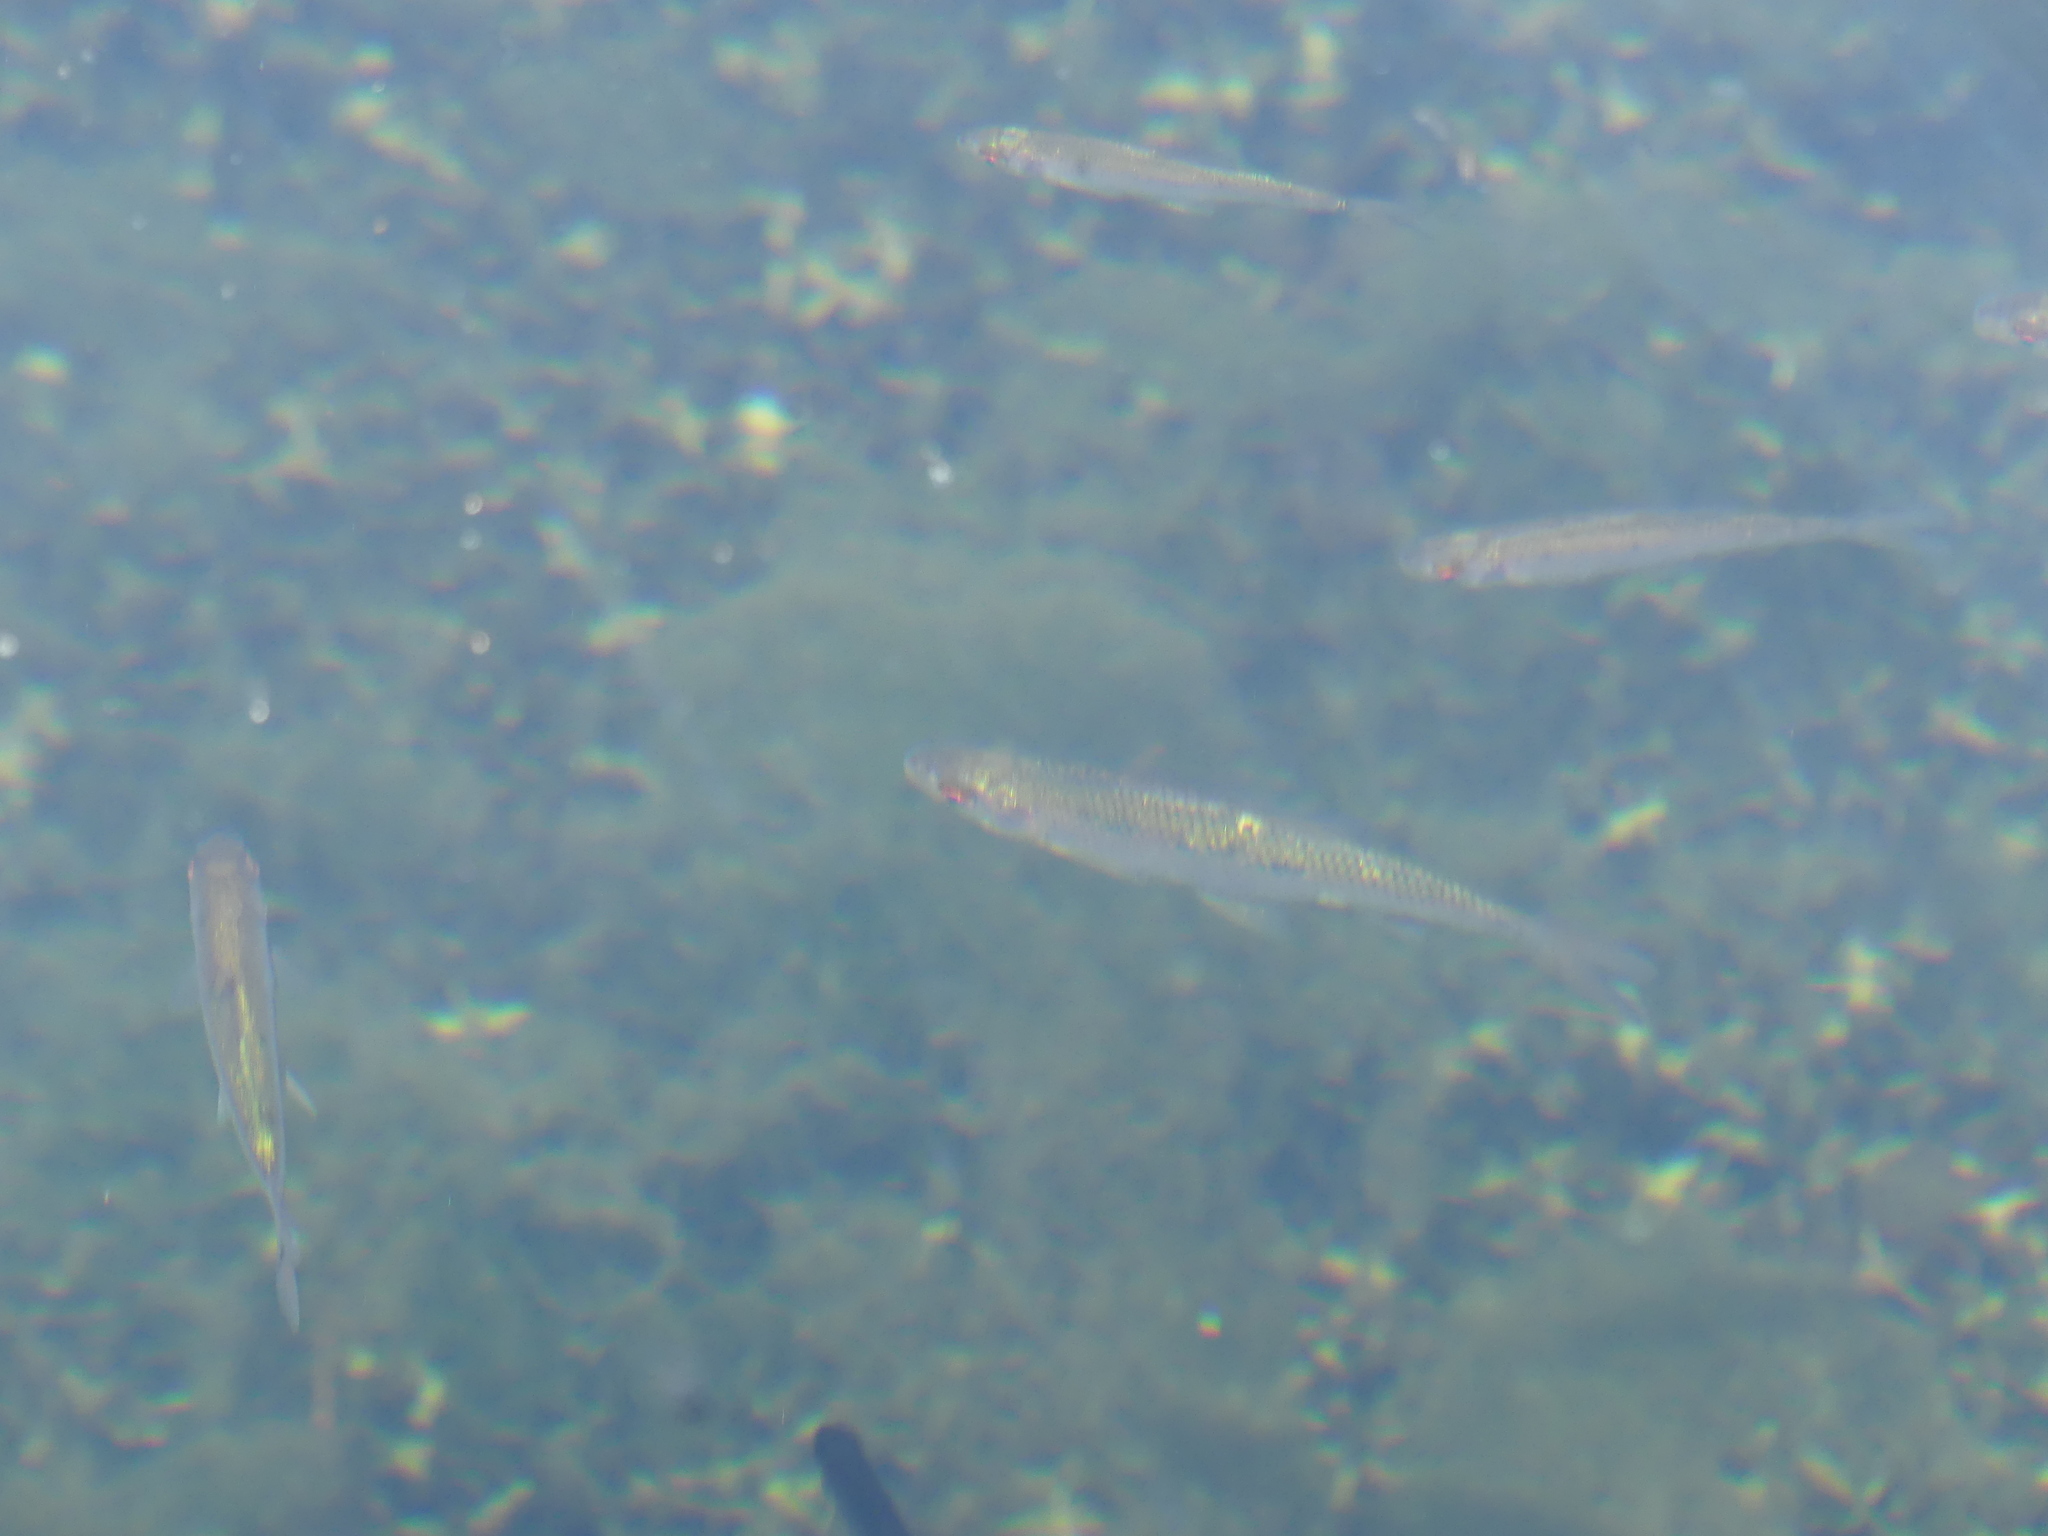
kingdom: Animalia
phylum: Chordata
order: Cypriniformes
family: Cyprinidae
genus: Rutilus
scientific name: Rutilus rutilus
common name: Roach
